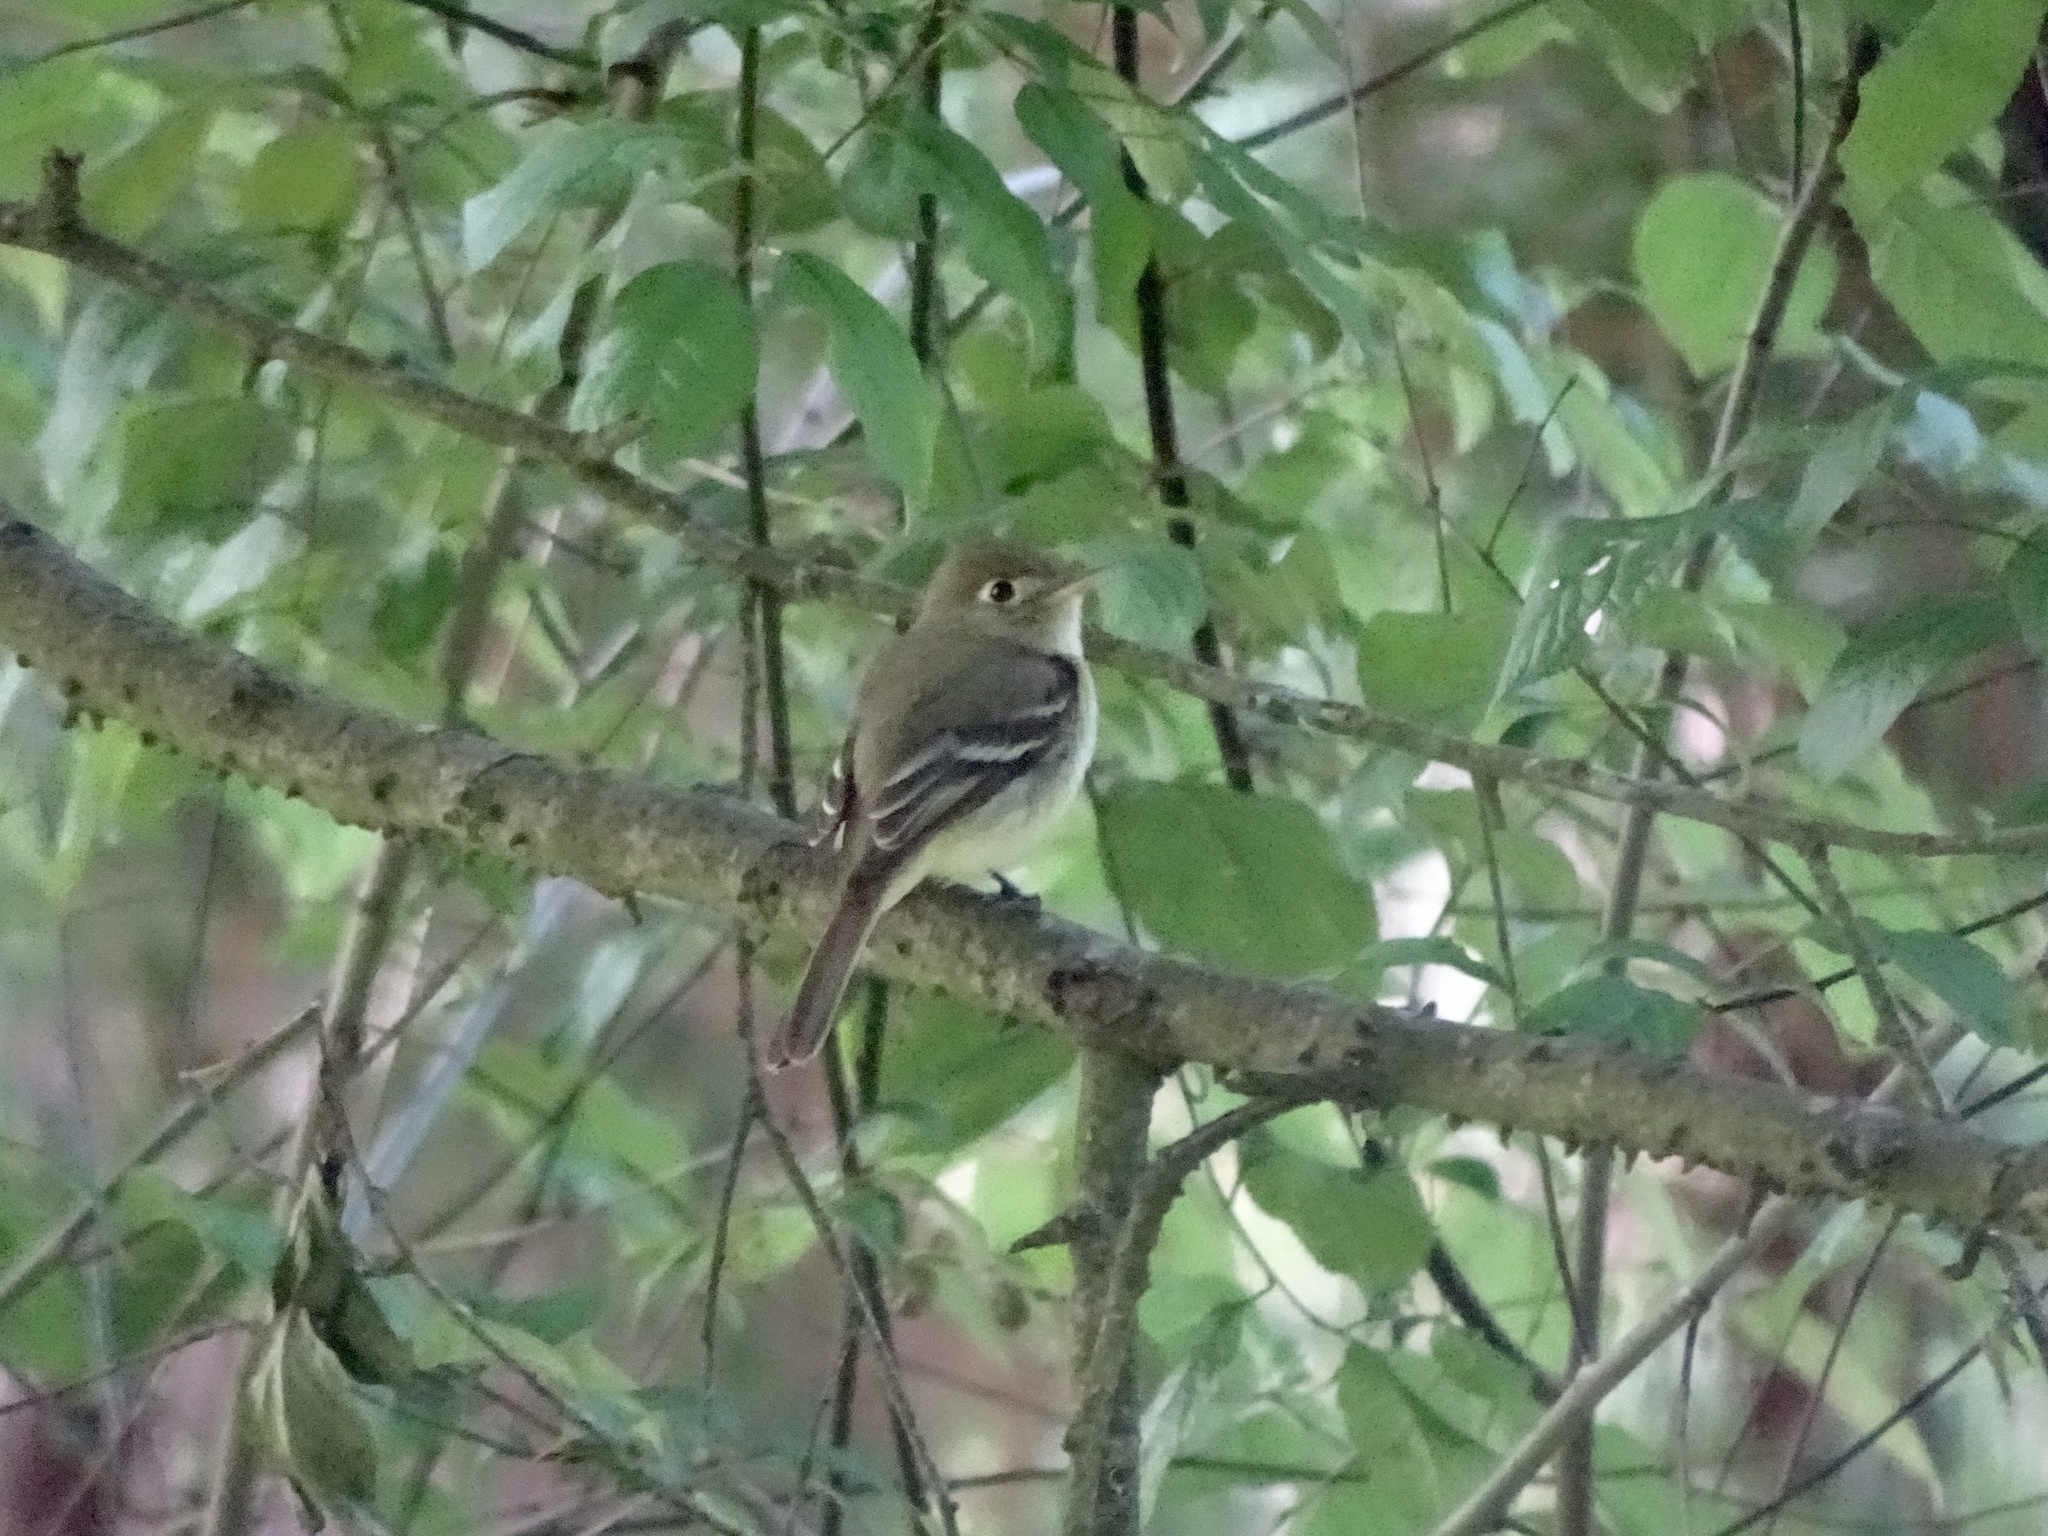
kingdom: Animalia
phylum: Chordata
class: Aves
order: Passeriformes
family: Tyrannidae
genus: Empidonax
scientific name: Empidonax difficilis
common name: Pacific-slope flycatcher
